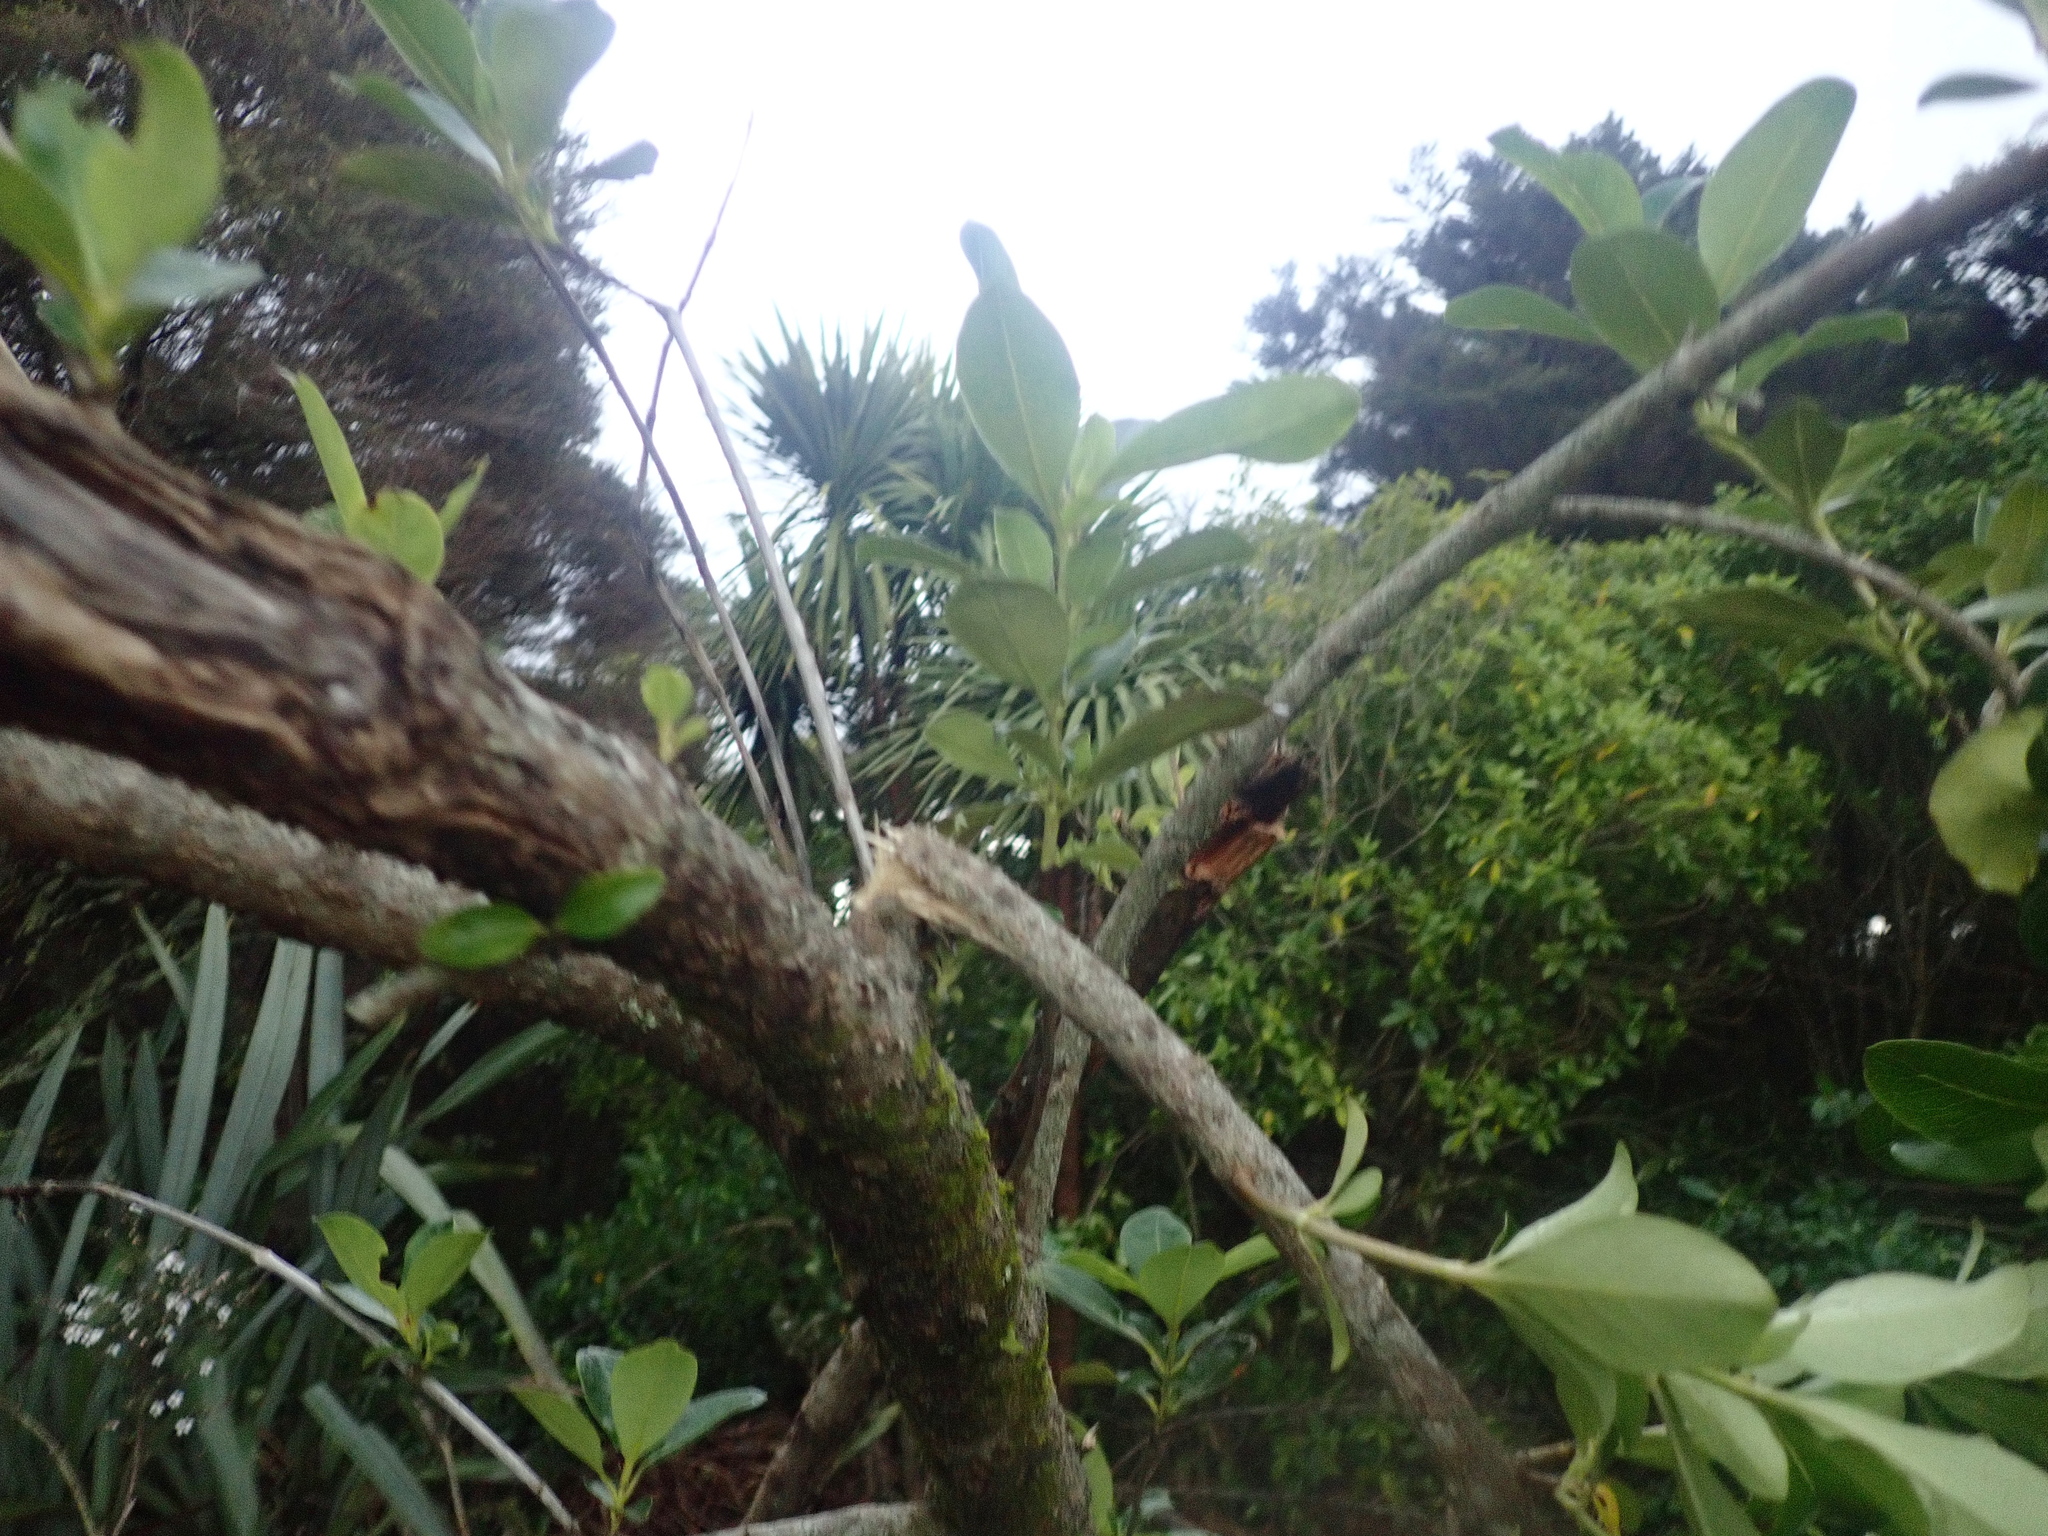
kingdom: Plantae
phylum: Tracheophyta
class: Magnoliopsida
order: Gentianales
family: Rubiaceae
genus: Coprosma
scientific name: Coprosma robusta
